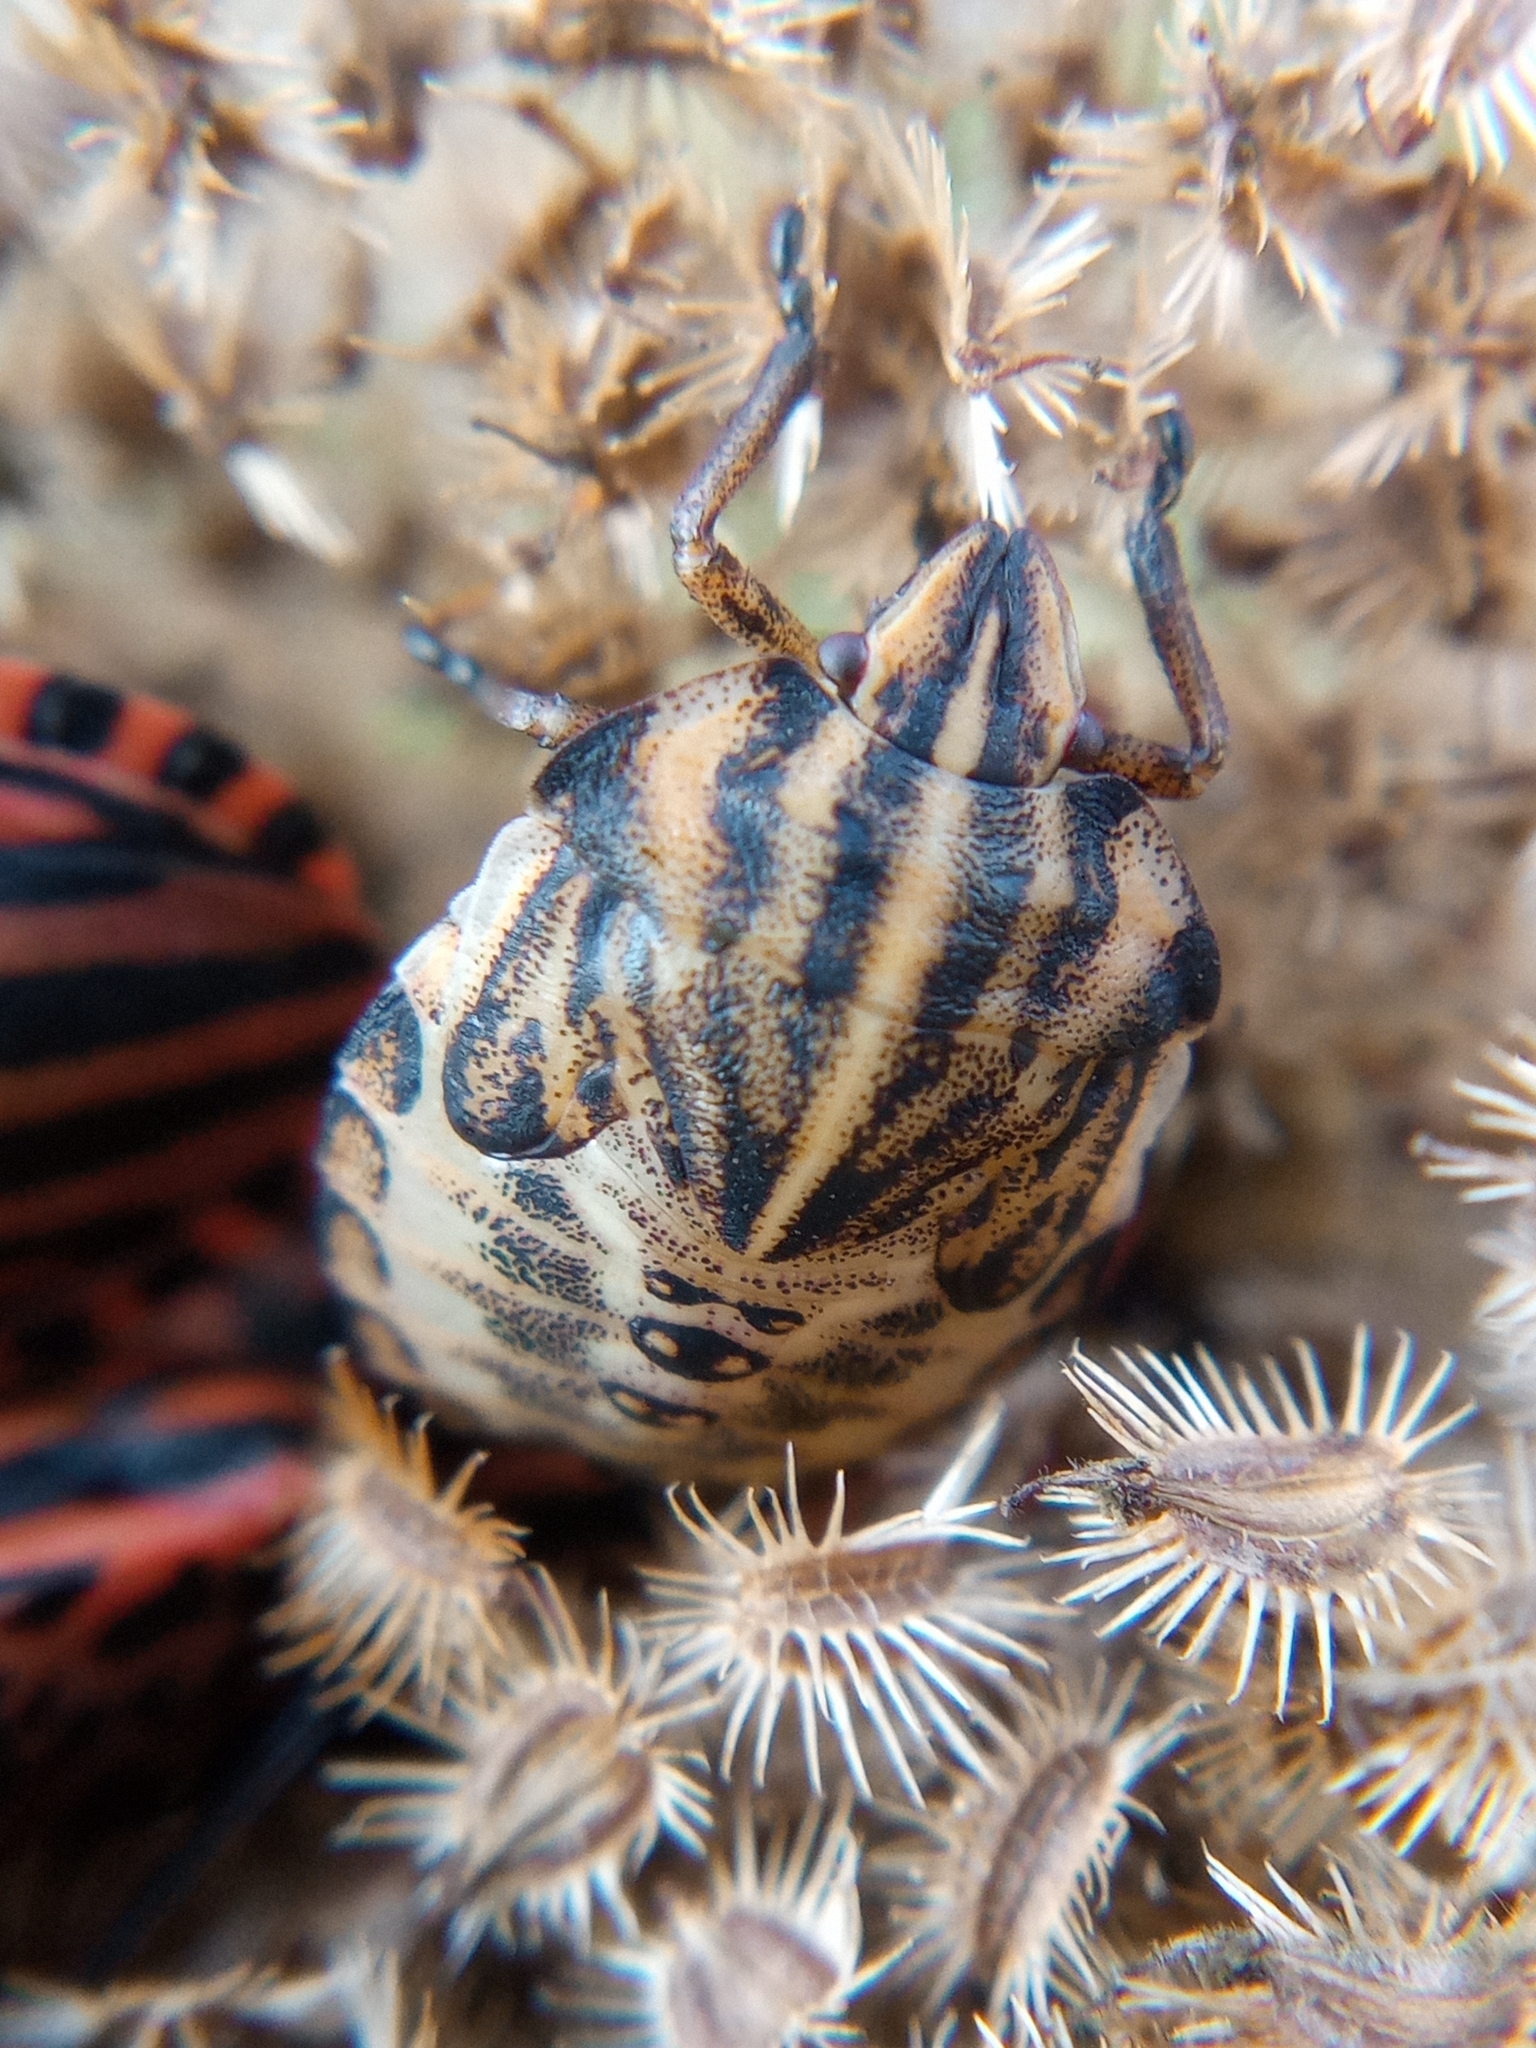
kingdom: Animalia
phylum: Arthropoda
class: Insecta
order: Hemiptera
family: Pentatomidae
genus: Graphosoma
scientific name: Graphosoma italicum
